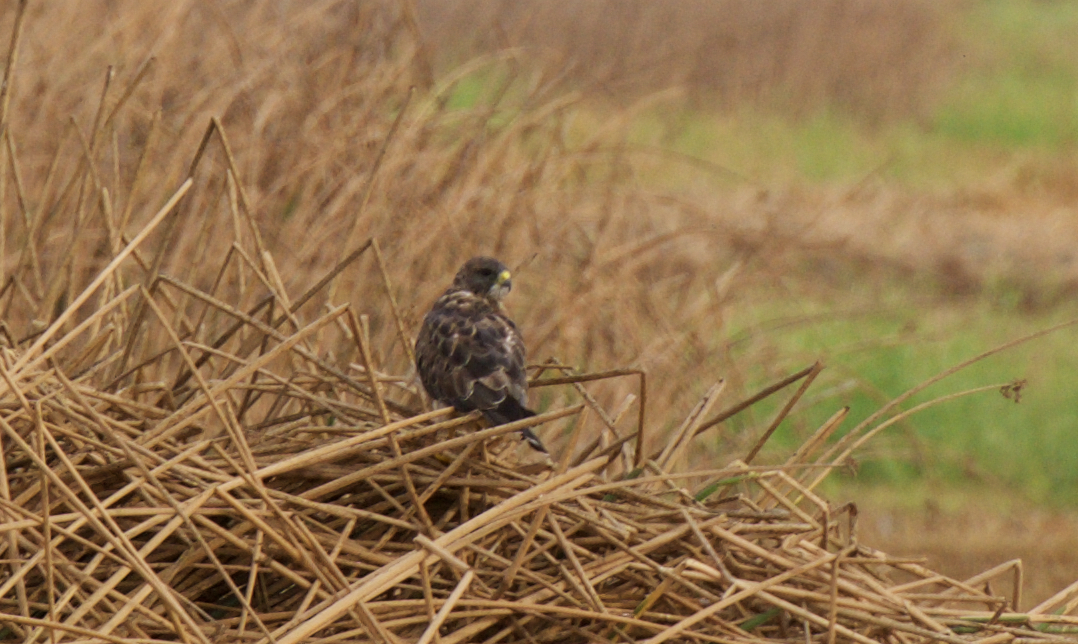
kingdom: Animalia
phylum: Chordata
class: Aves
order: Accipitriformes
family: Accipitridae
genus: Buteo
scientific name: Buteo swainsoni
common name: Swainson's hawk
